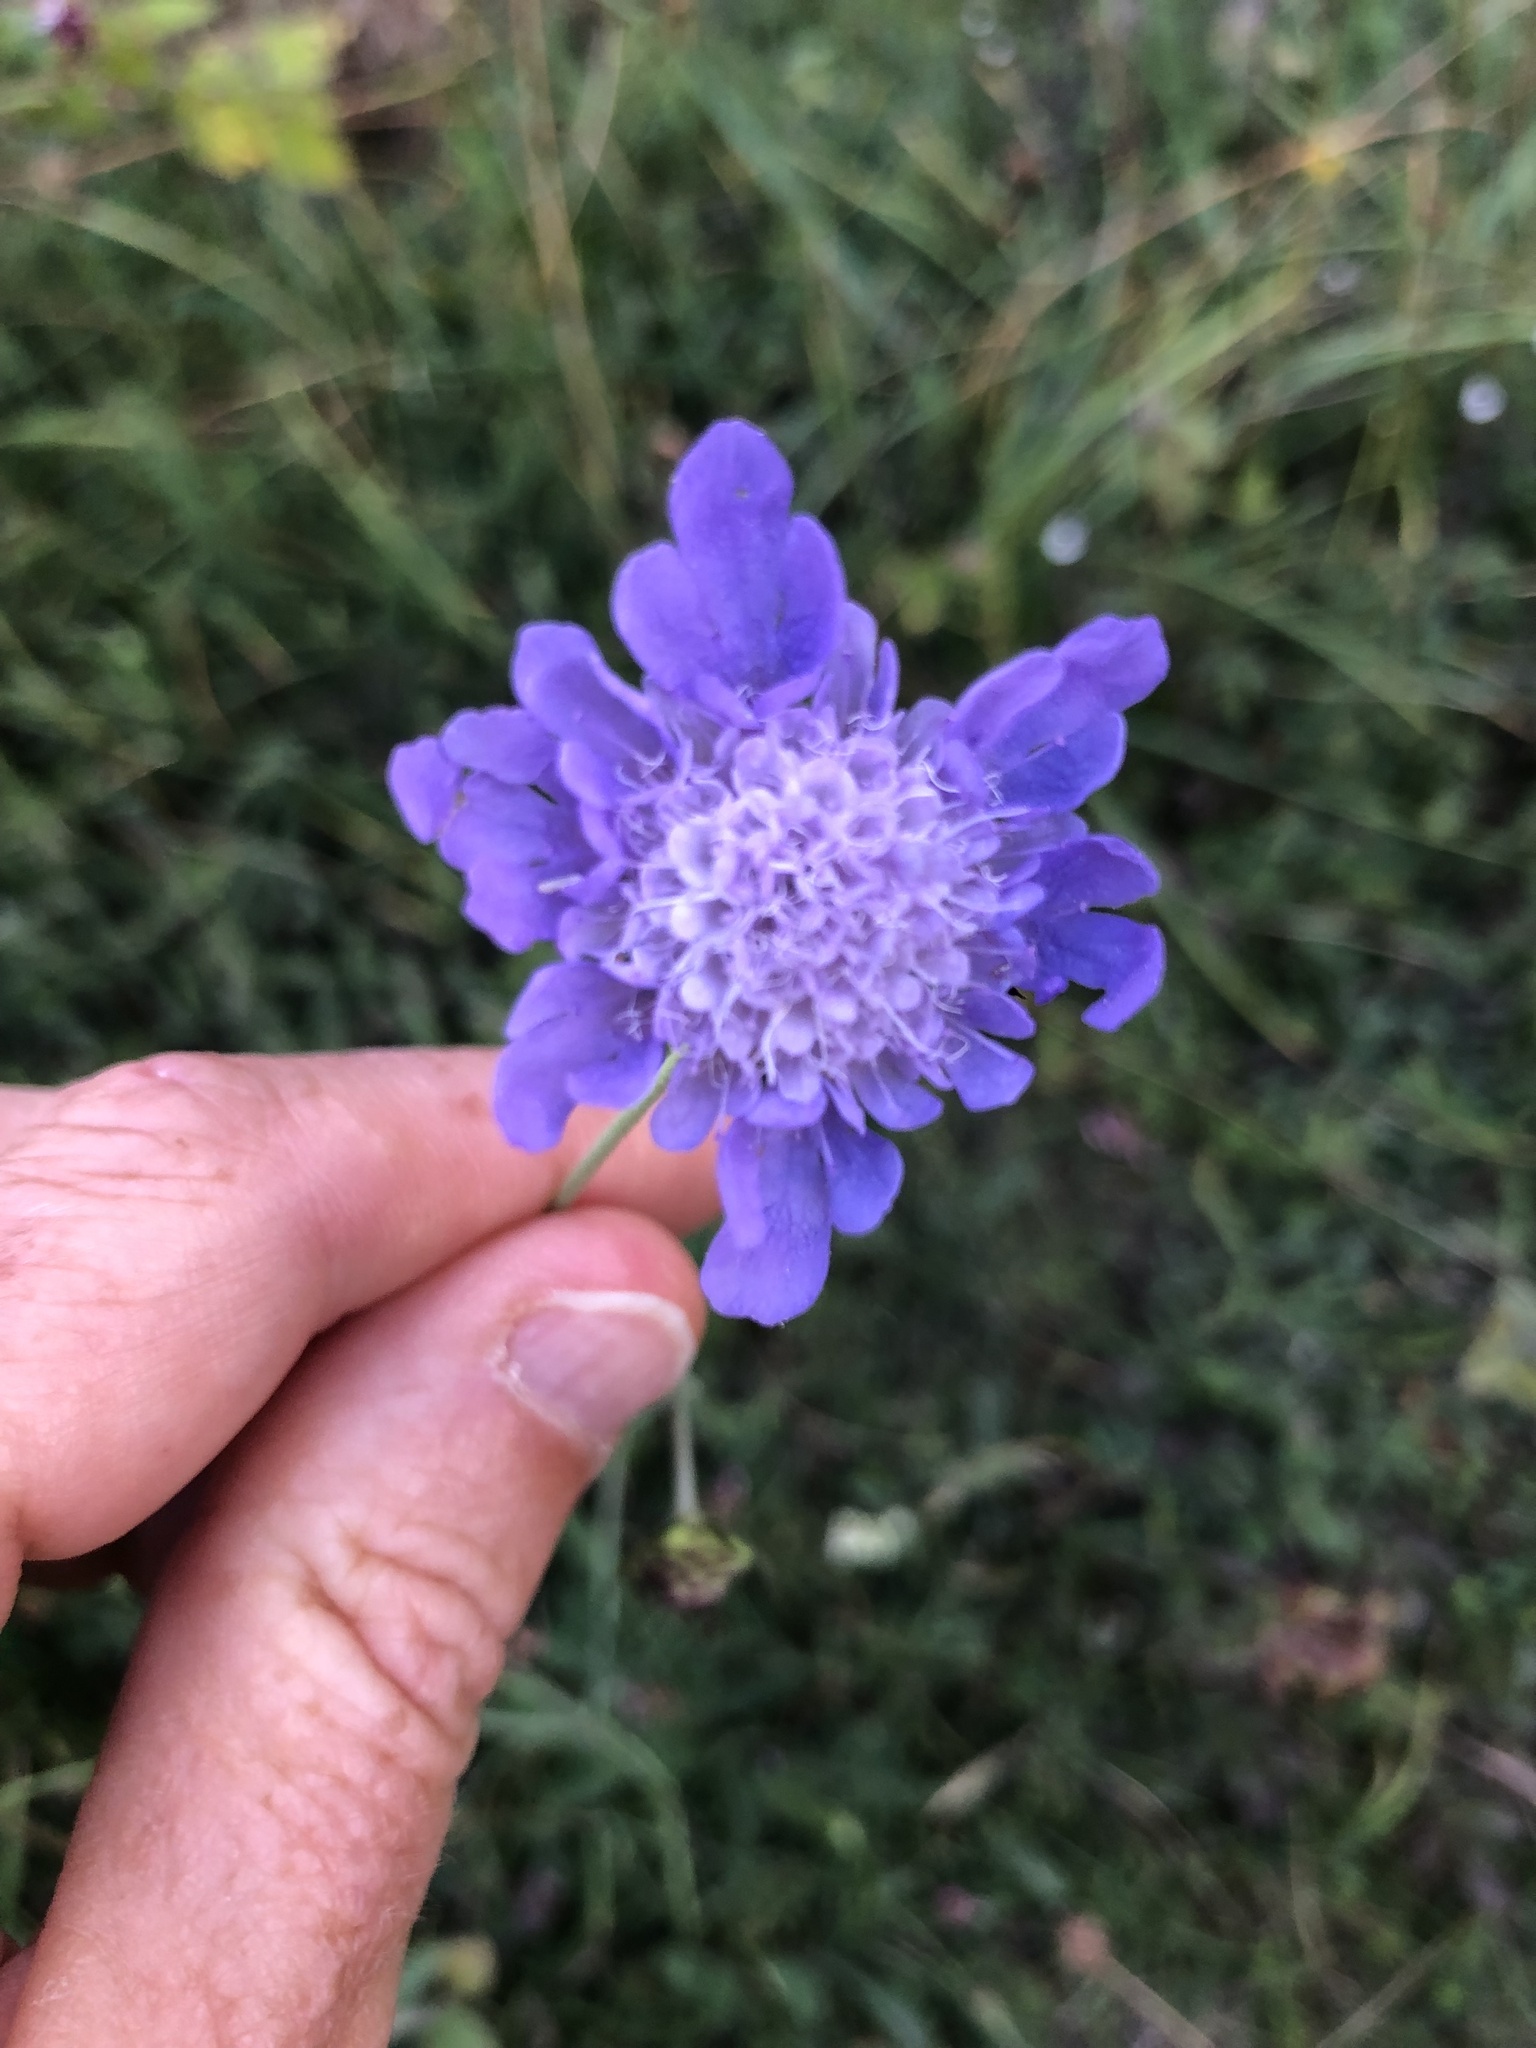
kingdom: Plantae
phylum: Tracheophyta
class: Magnoliopsida
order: Dipsacales
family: Caprifoliaceae
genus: Scabiosa
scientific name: Scabiosa columbaria
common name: Small scabious
